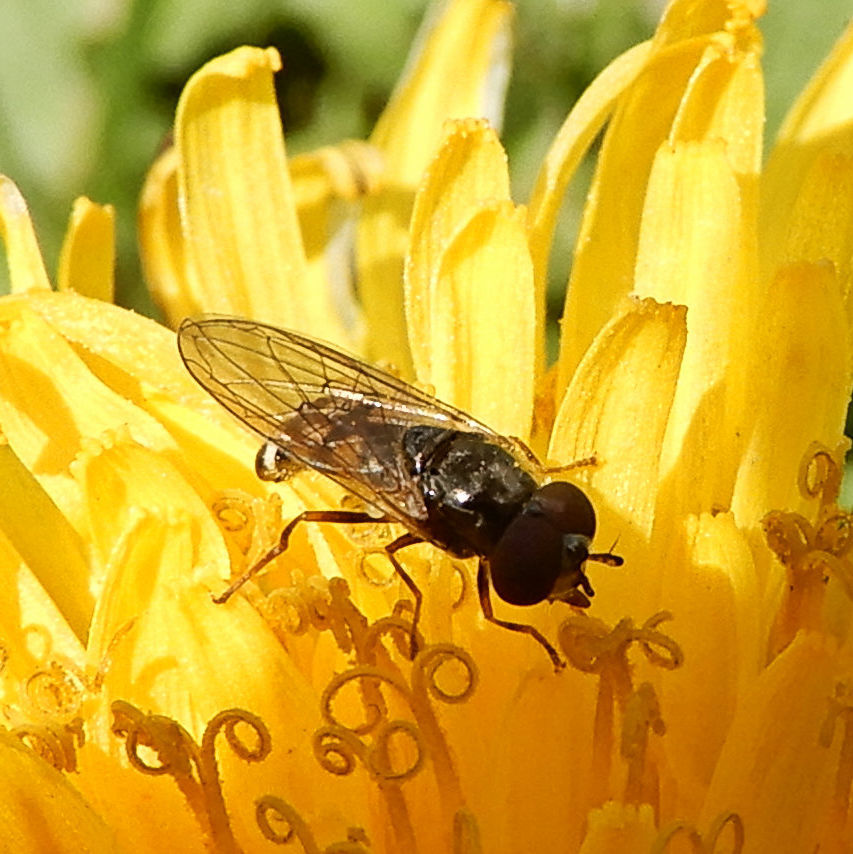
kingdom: Animalia
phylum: Arthropoda
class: Insecta
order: Diptera
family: Syrphidae
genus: Melanostoma
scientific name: Melanostoma mellina
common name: Hover fly
